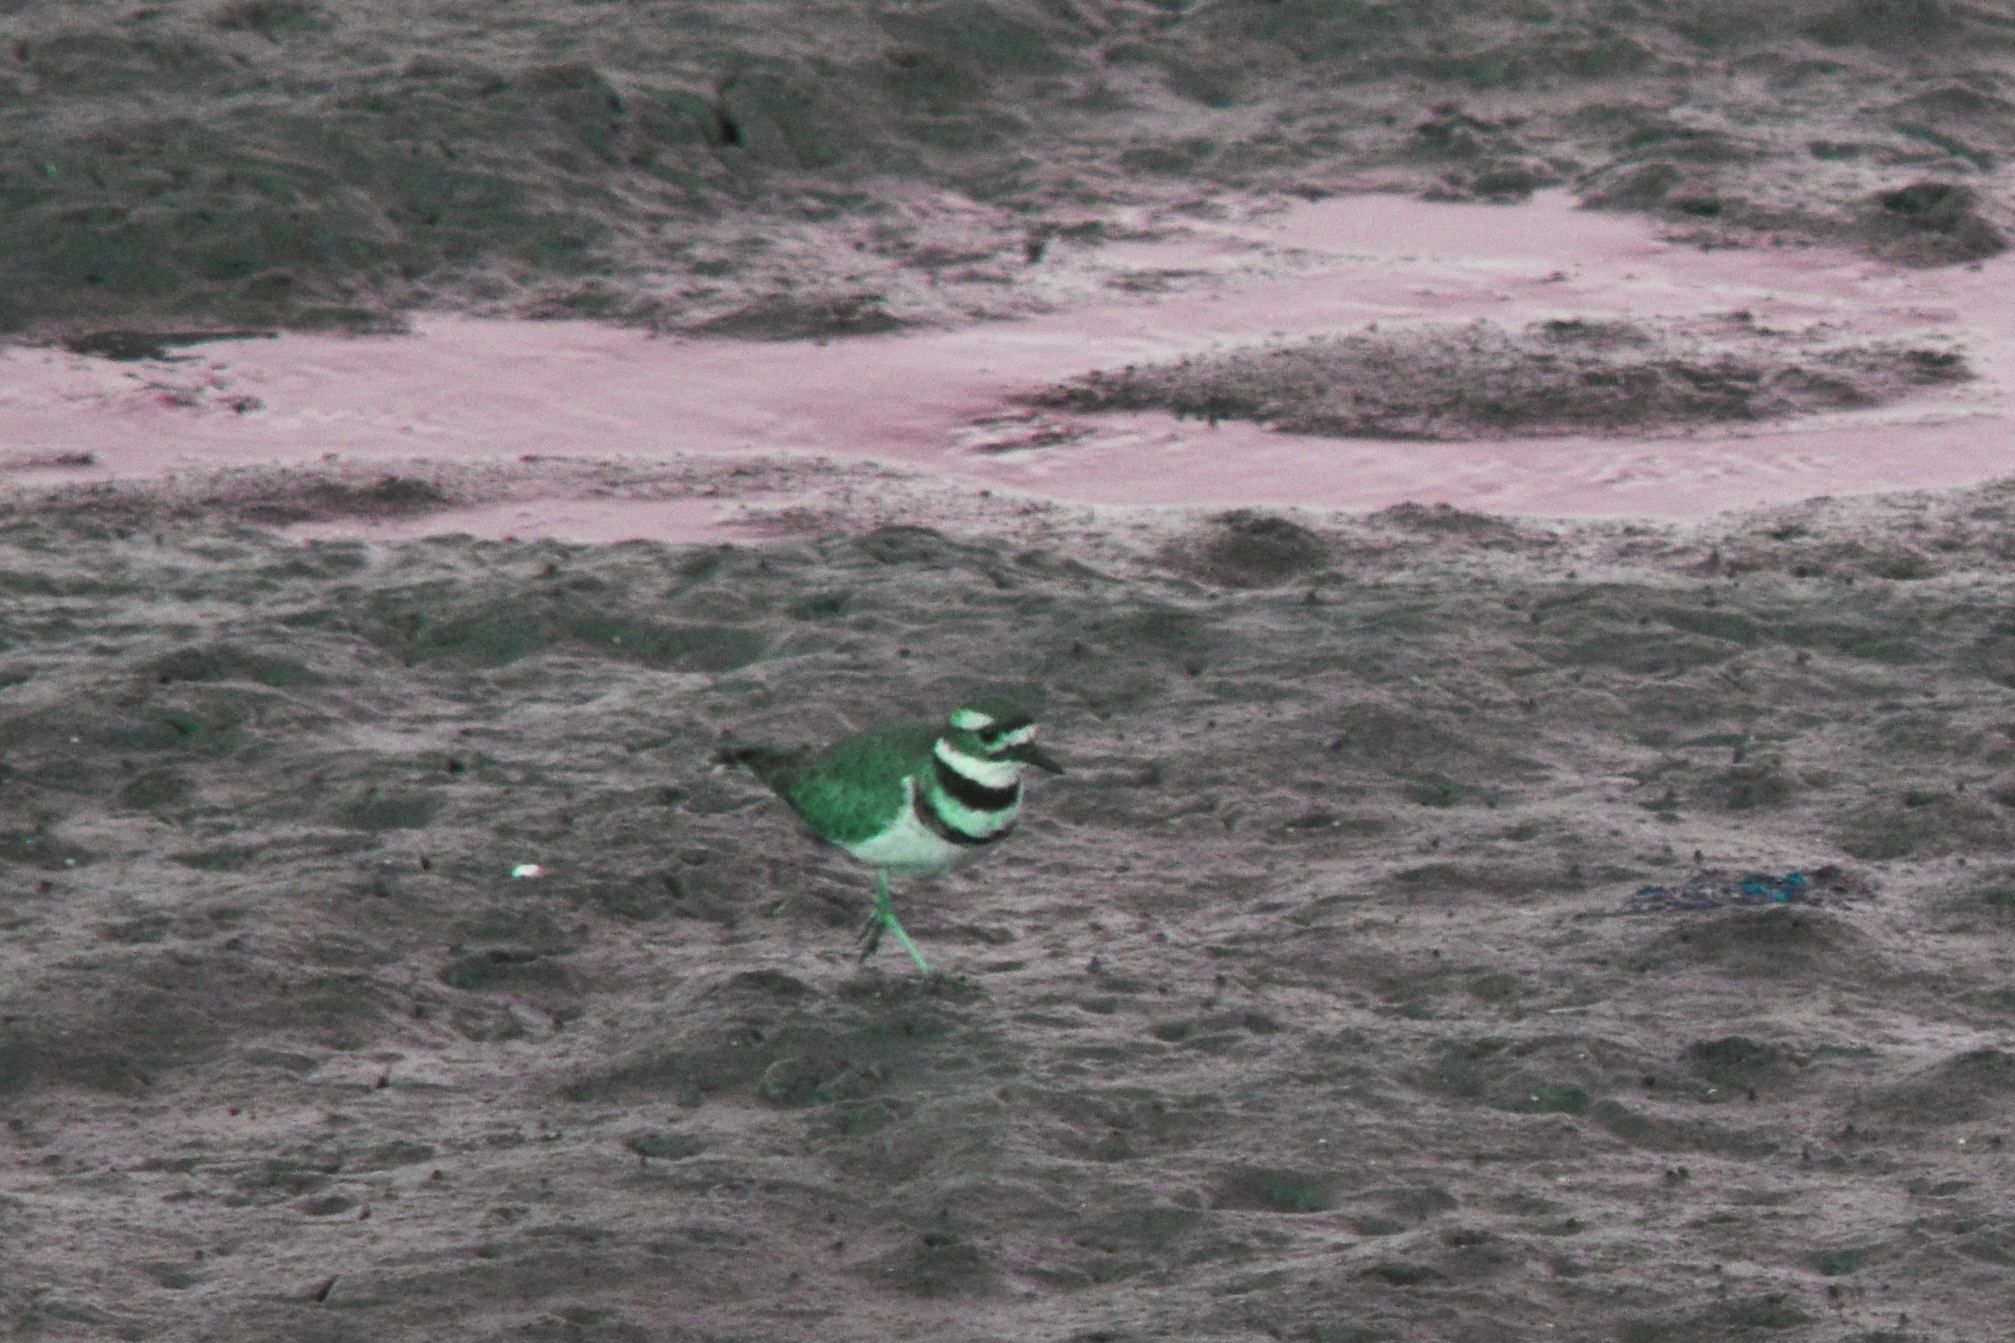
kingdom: Animalia
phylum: Chordata
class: Aves
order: Charadriiformes
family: Charadriidae
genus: Charadrius
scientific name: Charadrius vociferus
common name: Killdeer
